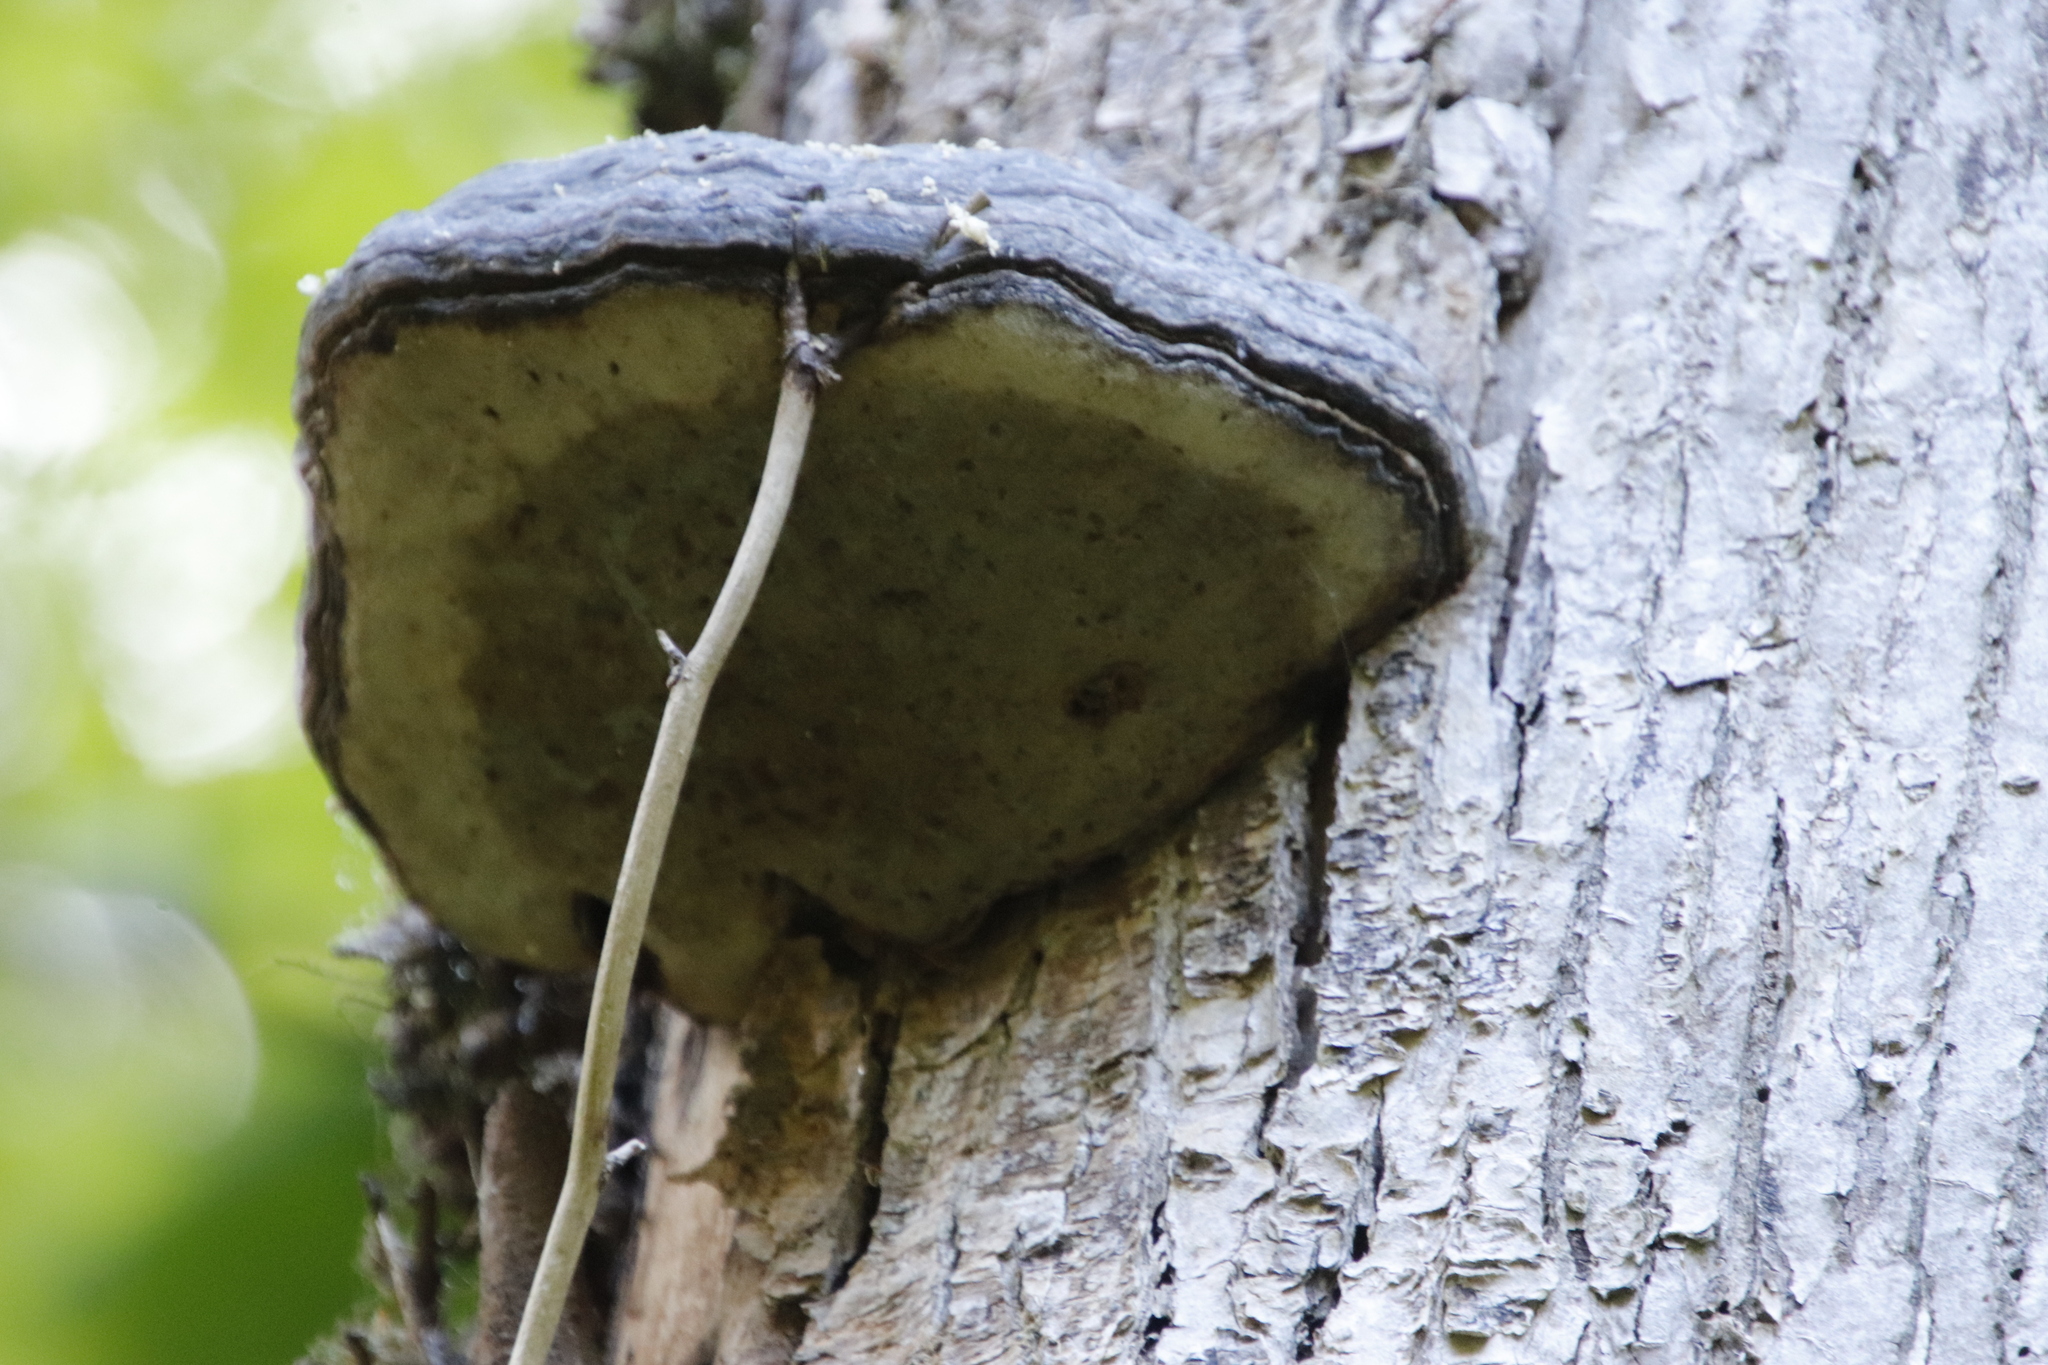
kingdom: Fungi
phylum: Basidiomycota
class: Agaricomycetes
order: Polyporales
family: Polyporaceae
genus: Fomes
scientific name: Fomes fomentarius
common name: Hoof fungus
